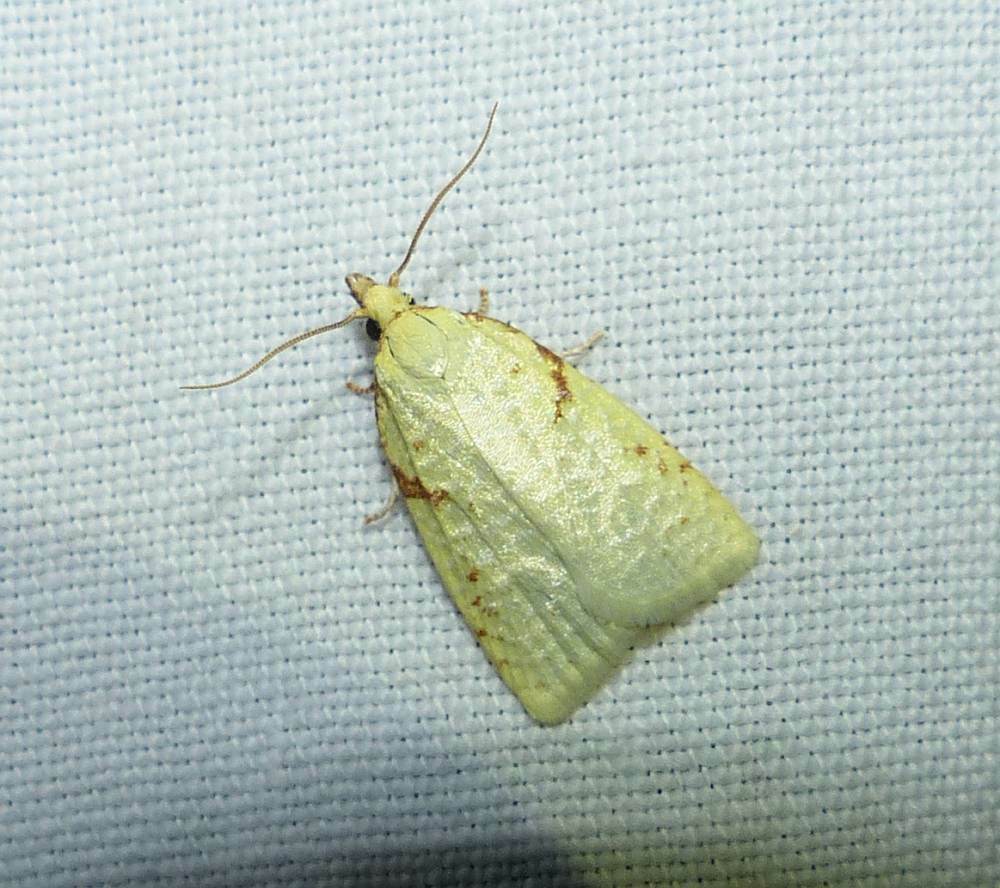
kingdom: Animalia
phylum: Arthropoda
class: Insecta
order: Lepidoptera
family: Tortricidae
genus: Cenopis
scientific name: Cenopis pettitana
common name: Maple-basswood leafroller moth
